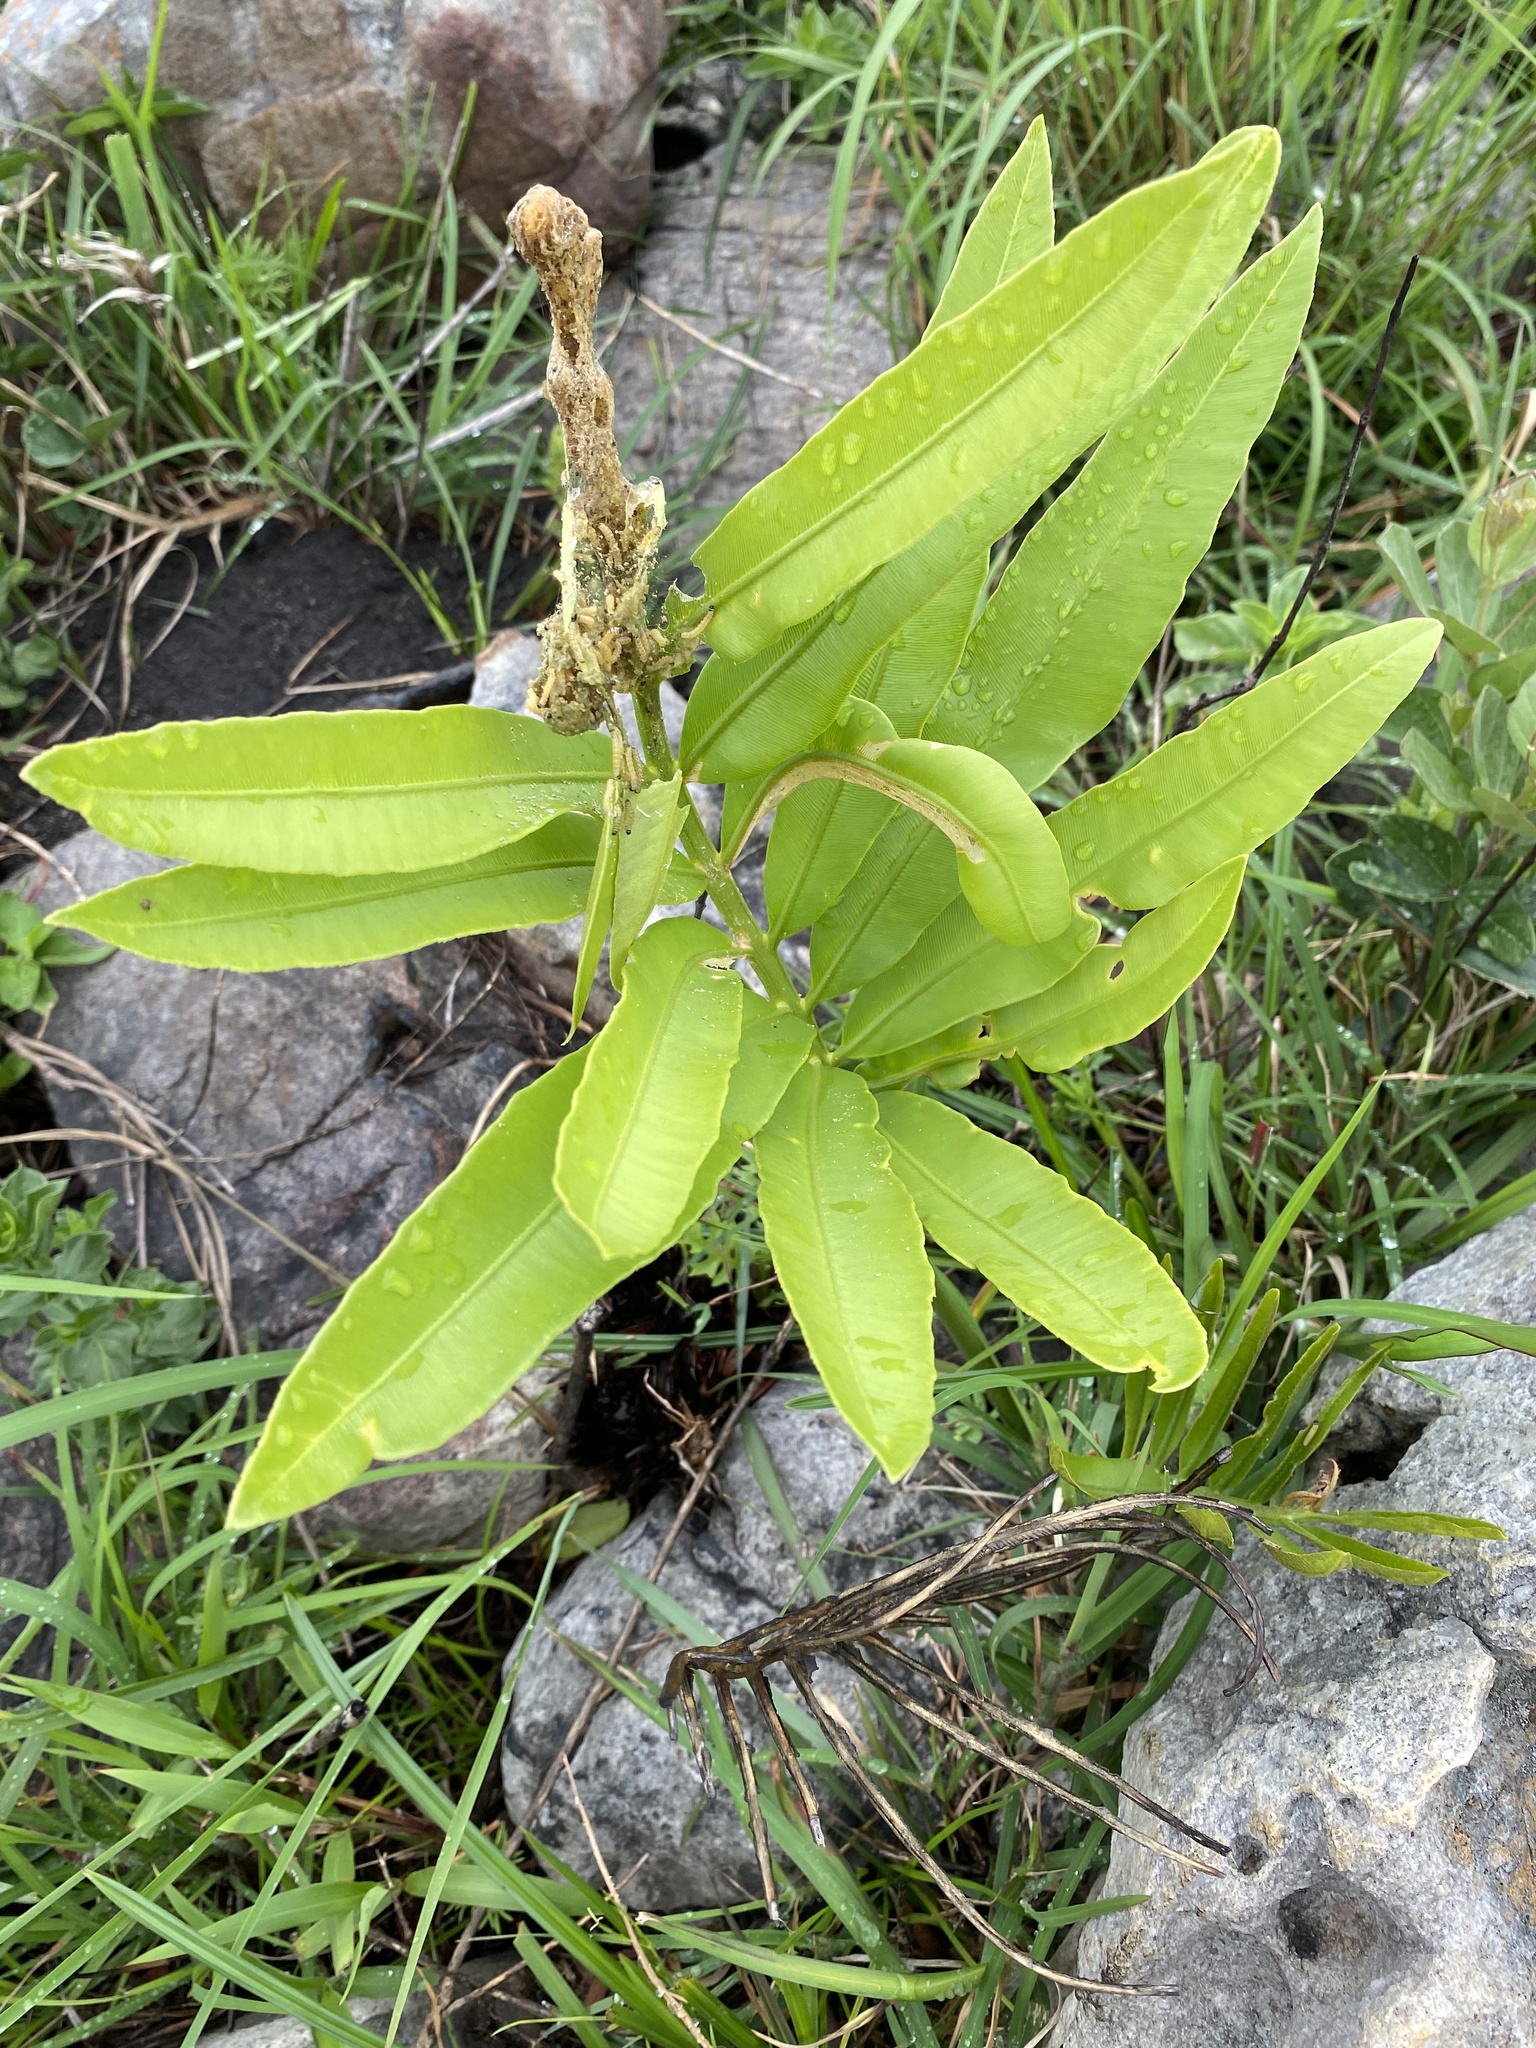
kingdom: Plantae
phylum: Tracheophyta
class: Cycadopsida
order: Cycadales
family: Zamiaceae
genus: Stangeria
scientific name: Stangeria eriopus
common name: Natal grass cycad
